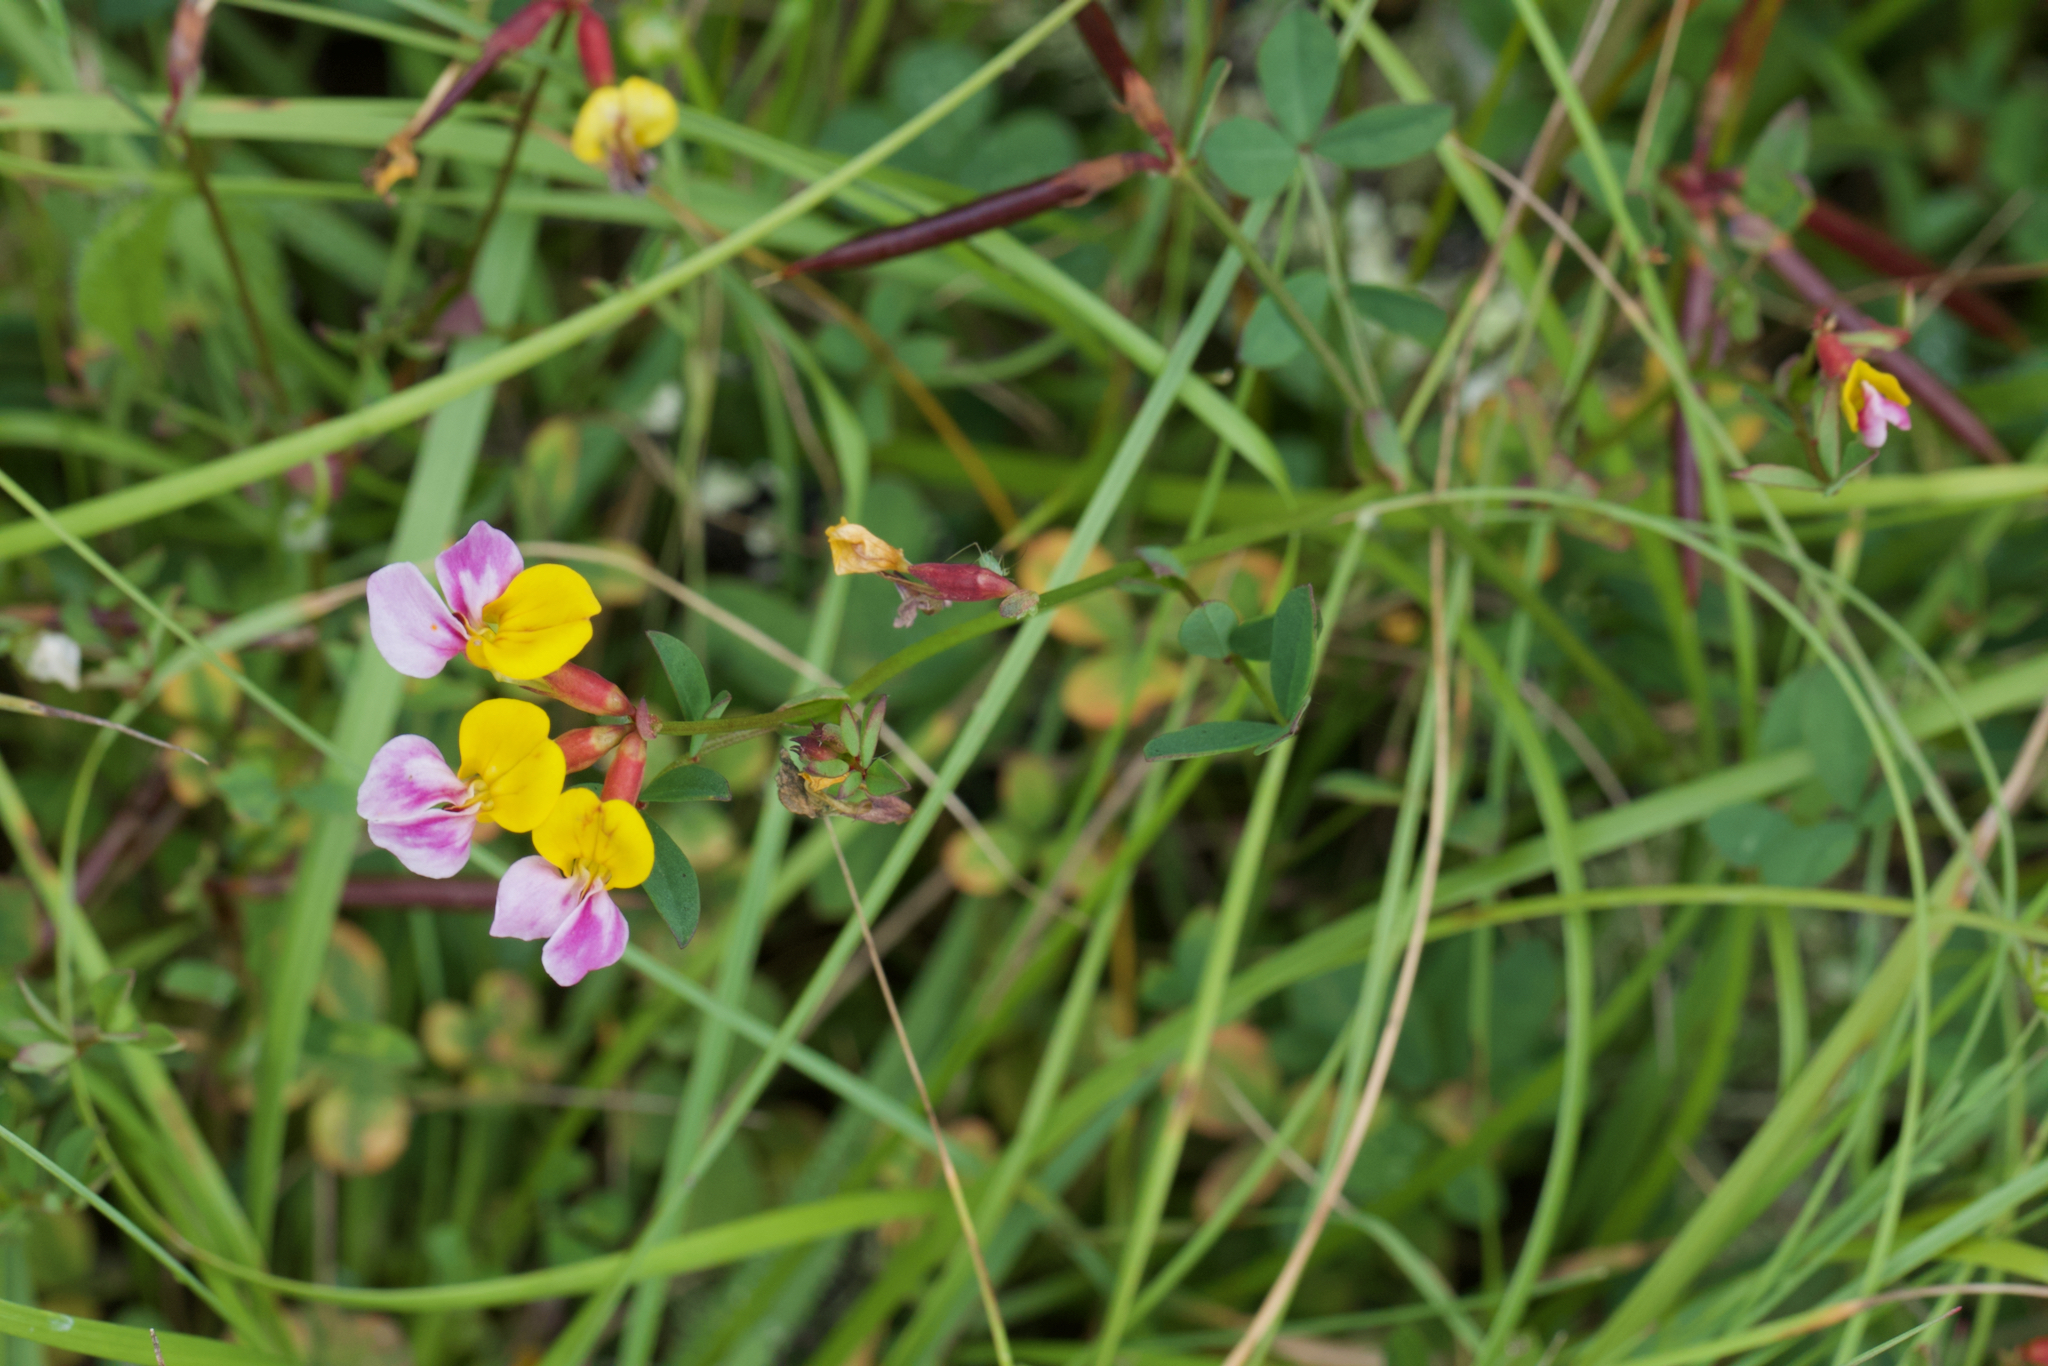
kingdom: Plantae
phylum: Tracheophyta
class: Magnoliopsida
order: Fabales
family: Fabaceae
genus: Hosackia
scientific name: Hosackia gracilis
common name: Seaside bird's-foot lotus
